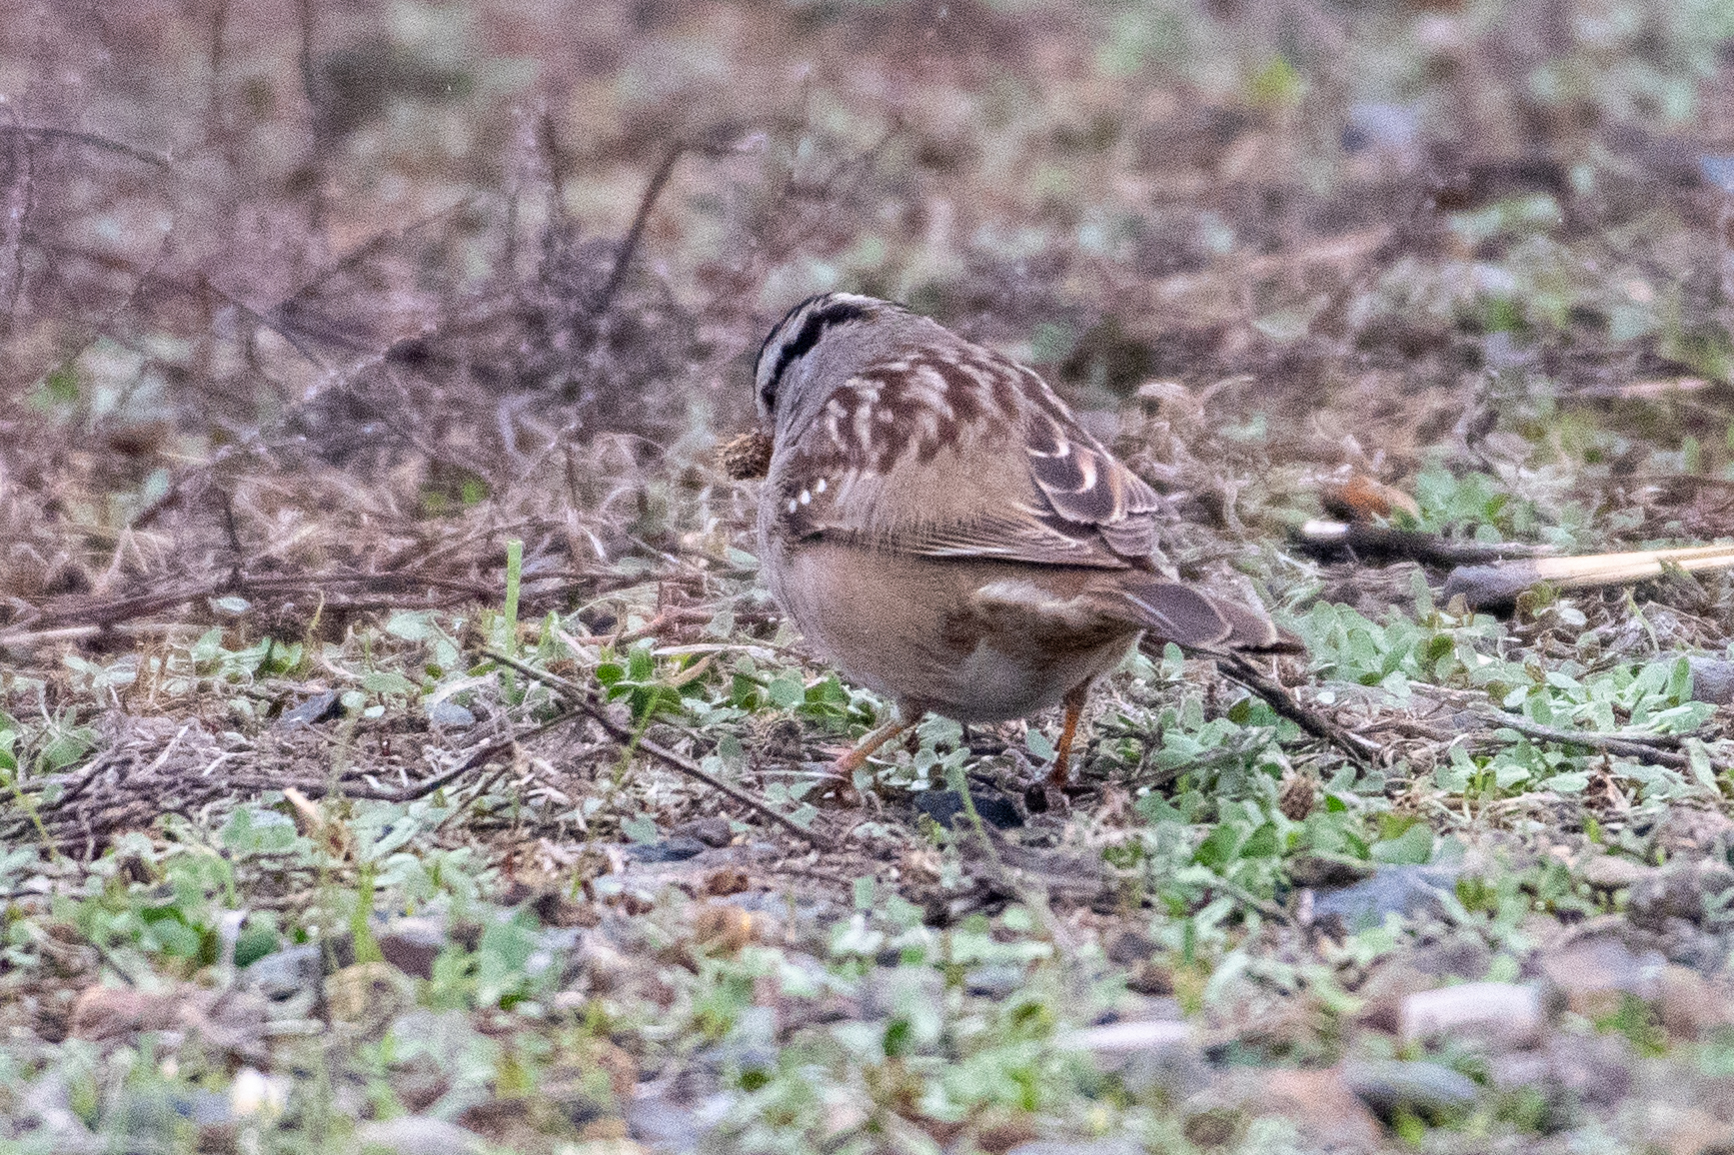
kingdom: Animalia
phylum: Chordata
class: Aves
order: Passeriformes
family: Passerellidae
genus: Zonotrichia
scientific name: Zonotrichia leucophrys
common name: White-crowned sparrow
